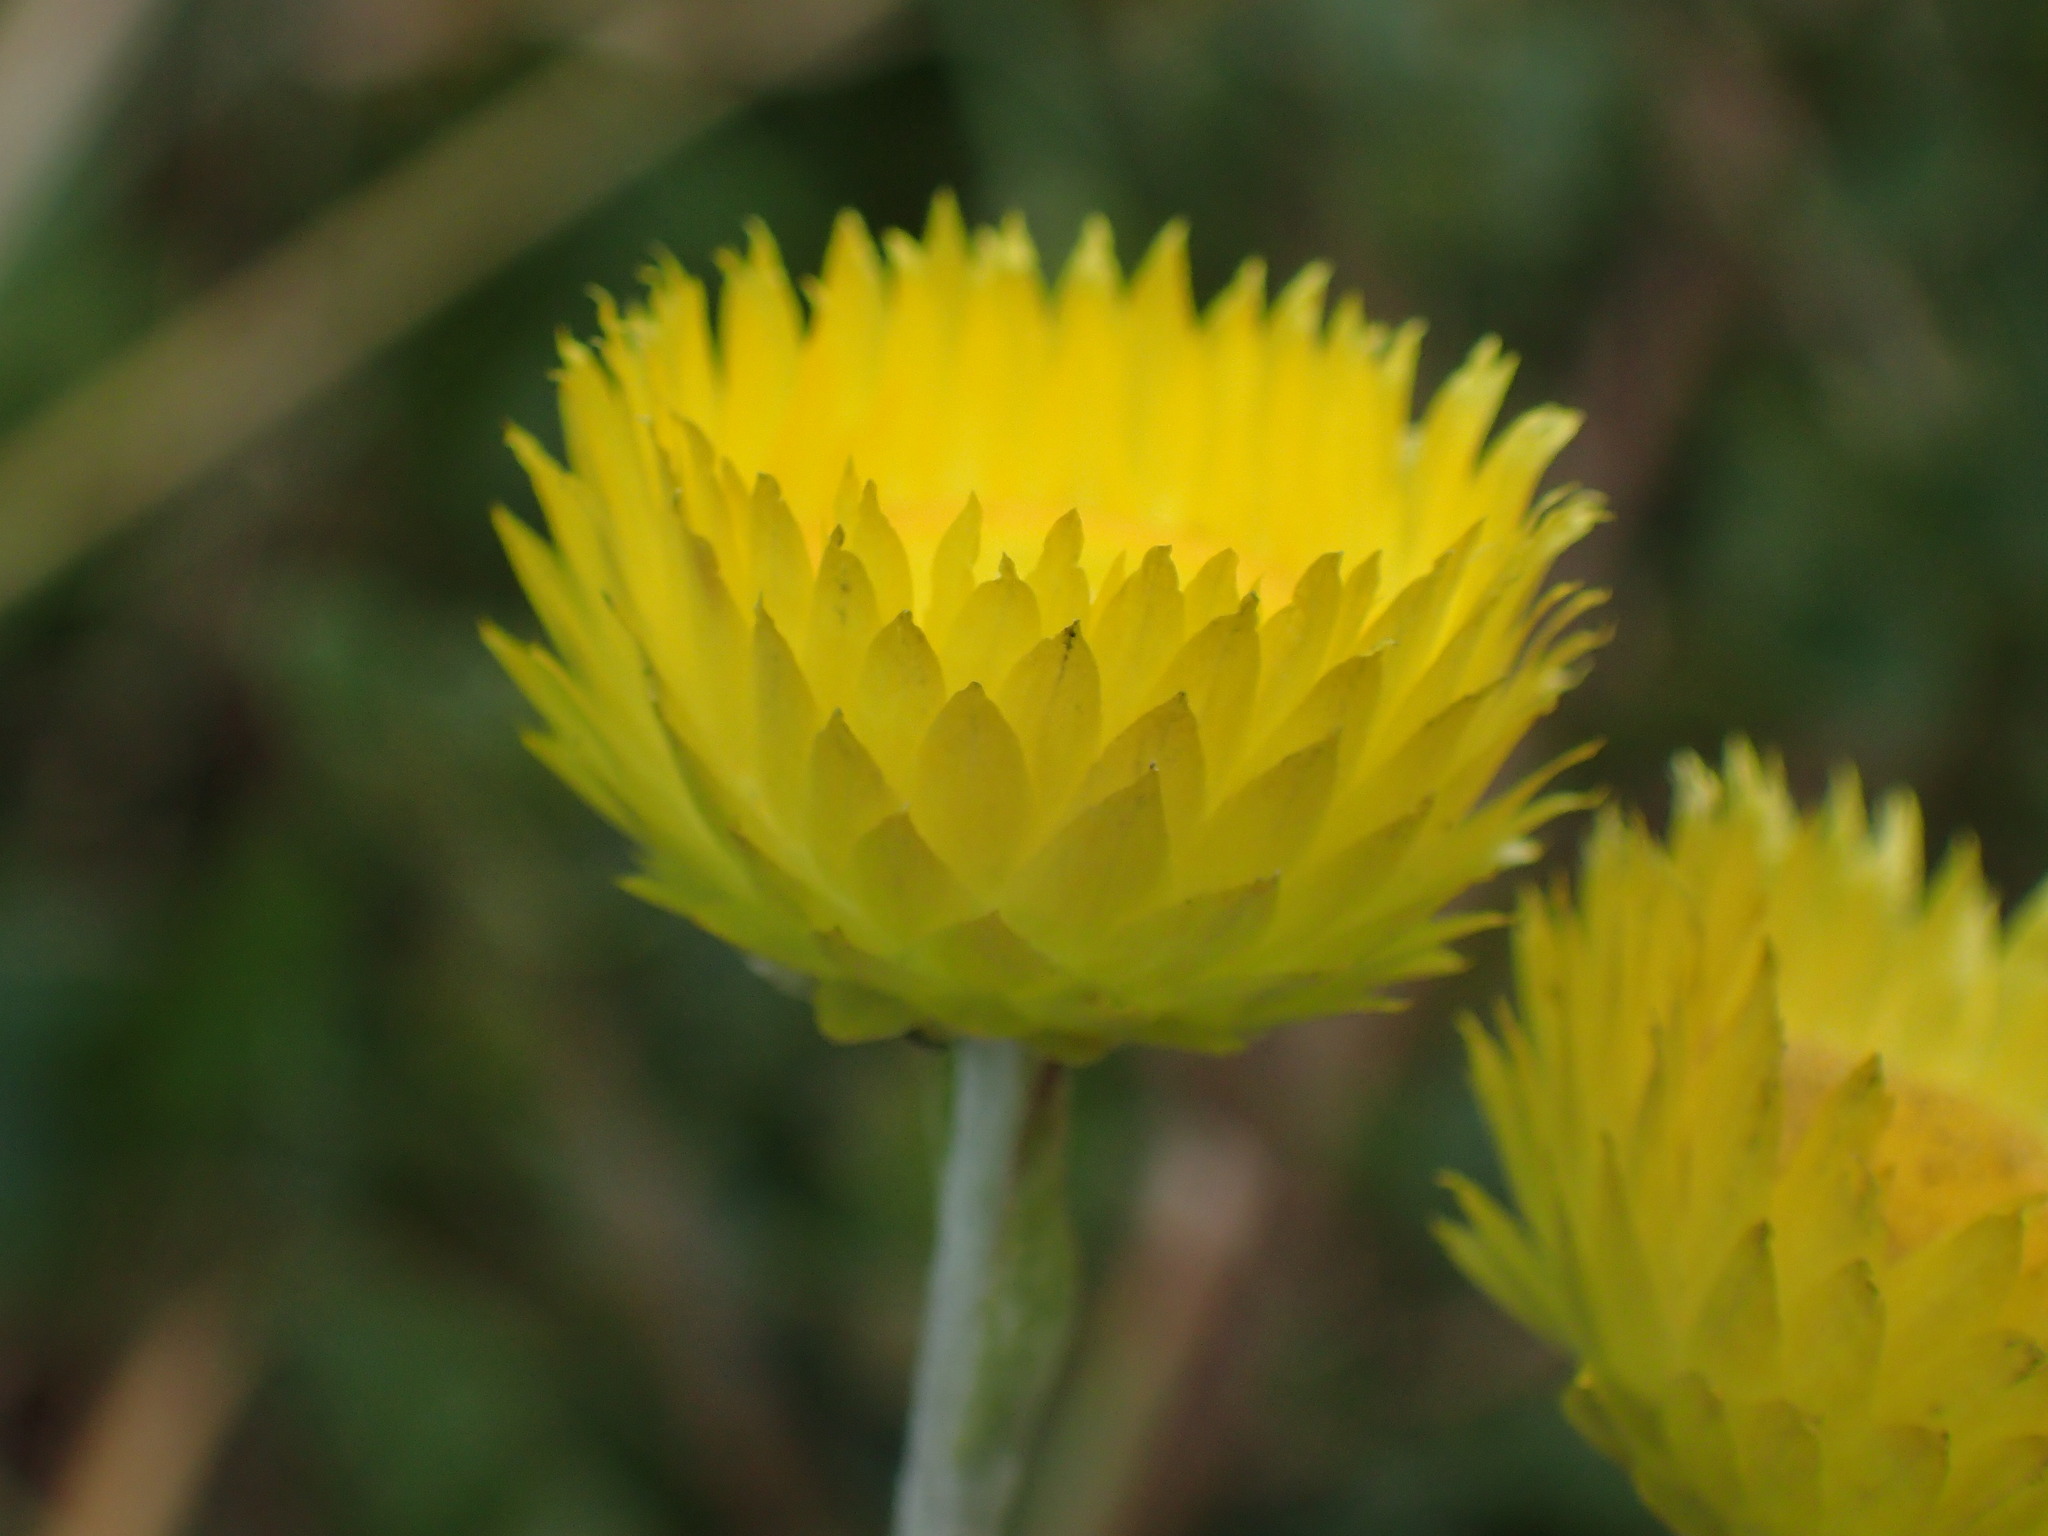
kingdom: Plantae
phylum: Tracheophyta
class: Magnoliopsida
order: Asterales
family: Asteraceae
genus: Helichrysum
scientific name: Helichrysum cooperi
